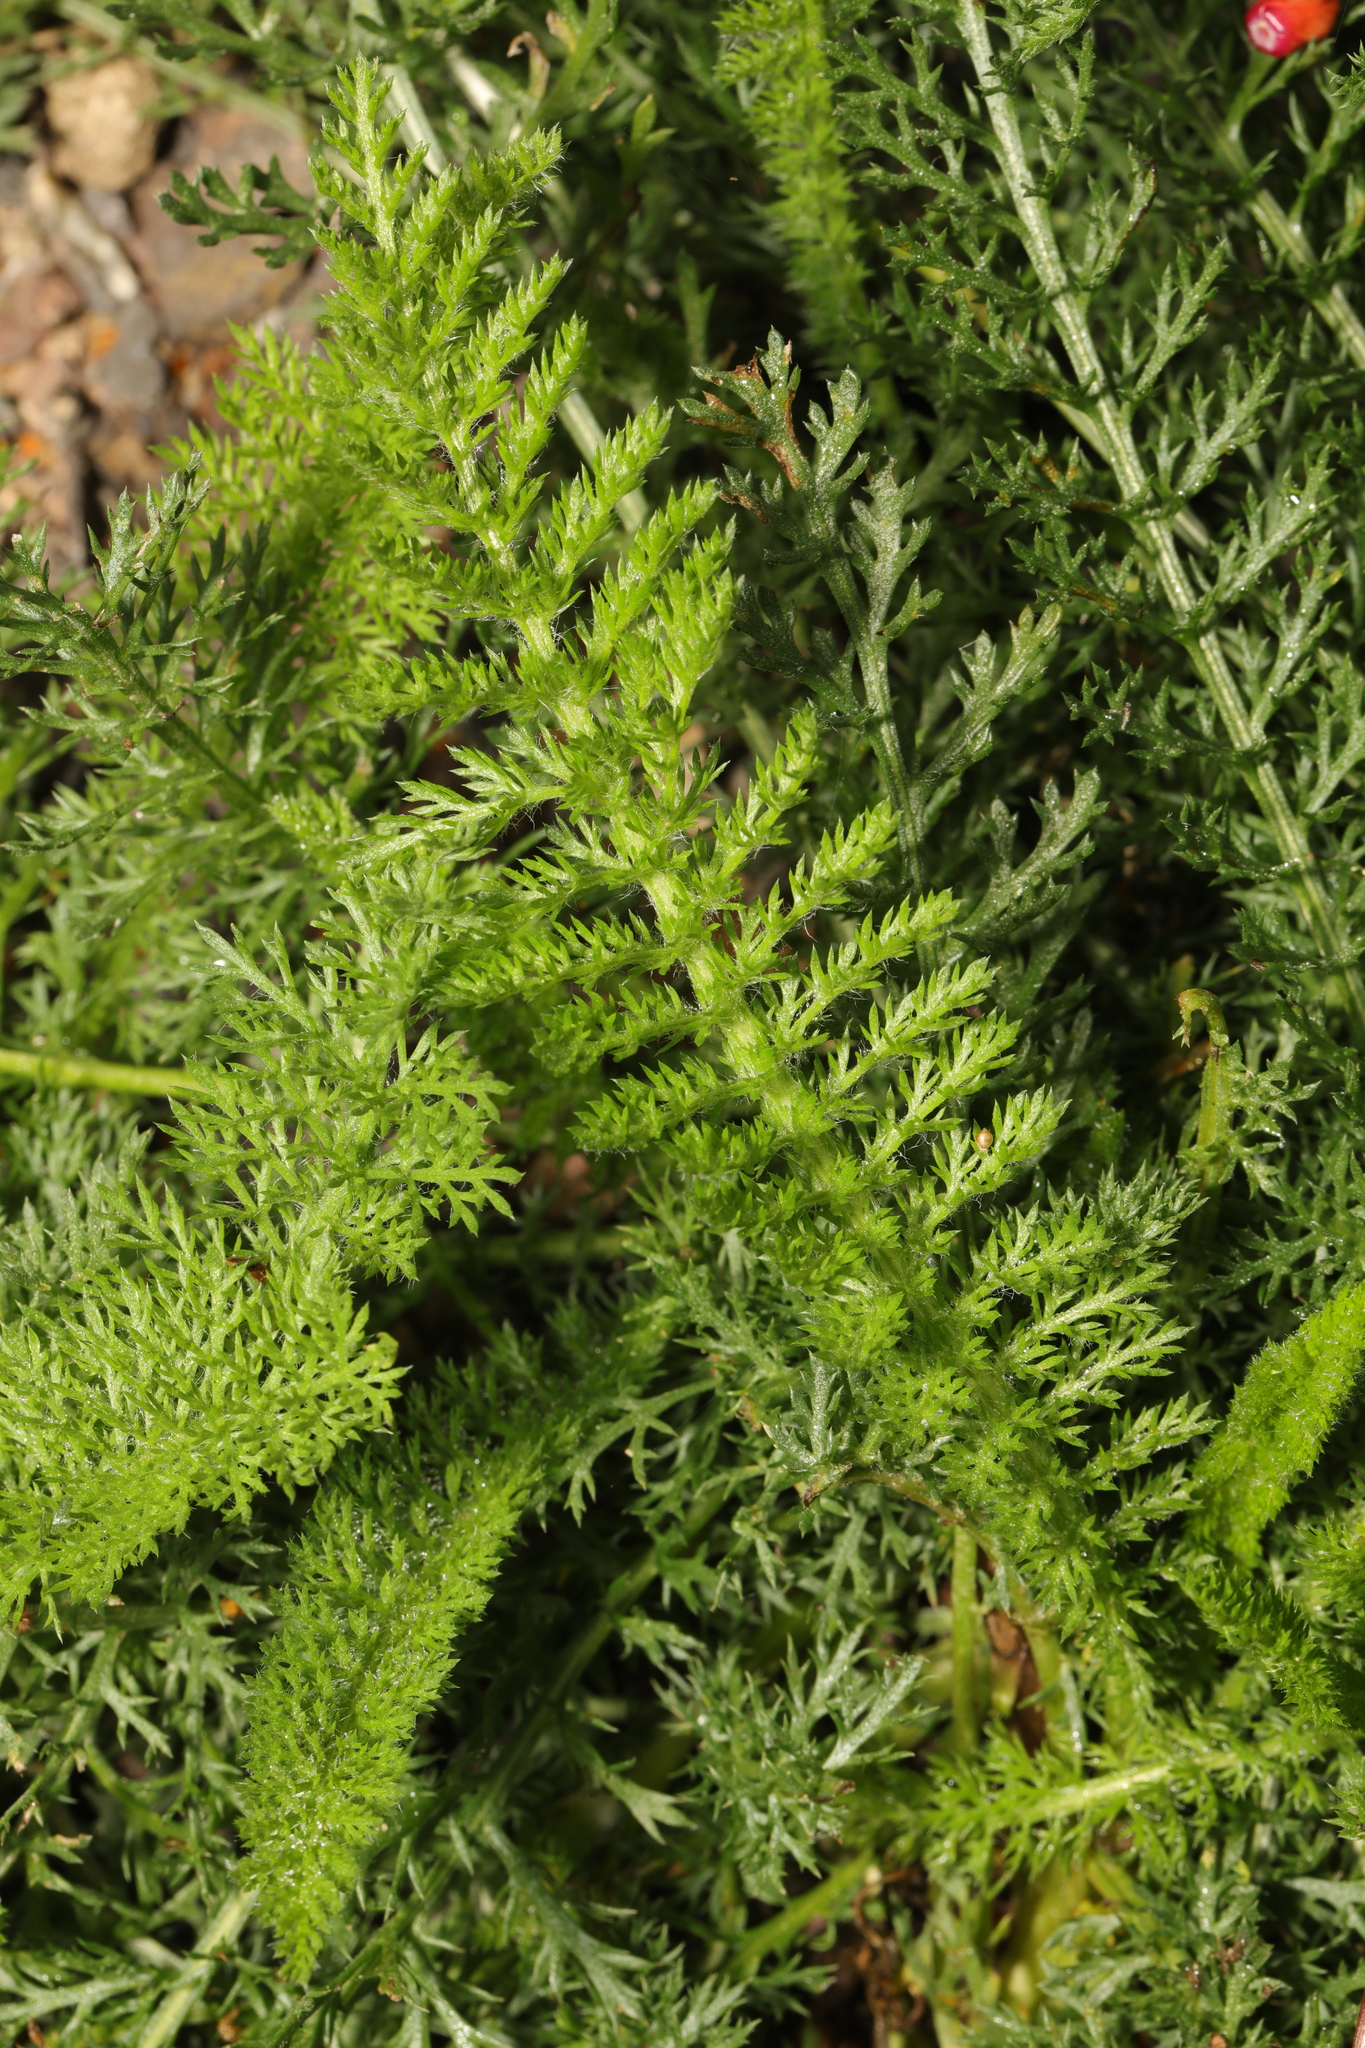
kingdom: Plantae
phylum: Tracheophyta
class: Magnoliopsida
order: Asterales
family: Asteraceae
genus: Achillea
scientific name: Achillea millefolium
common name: Yarrow
